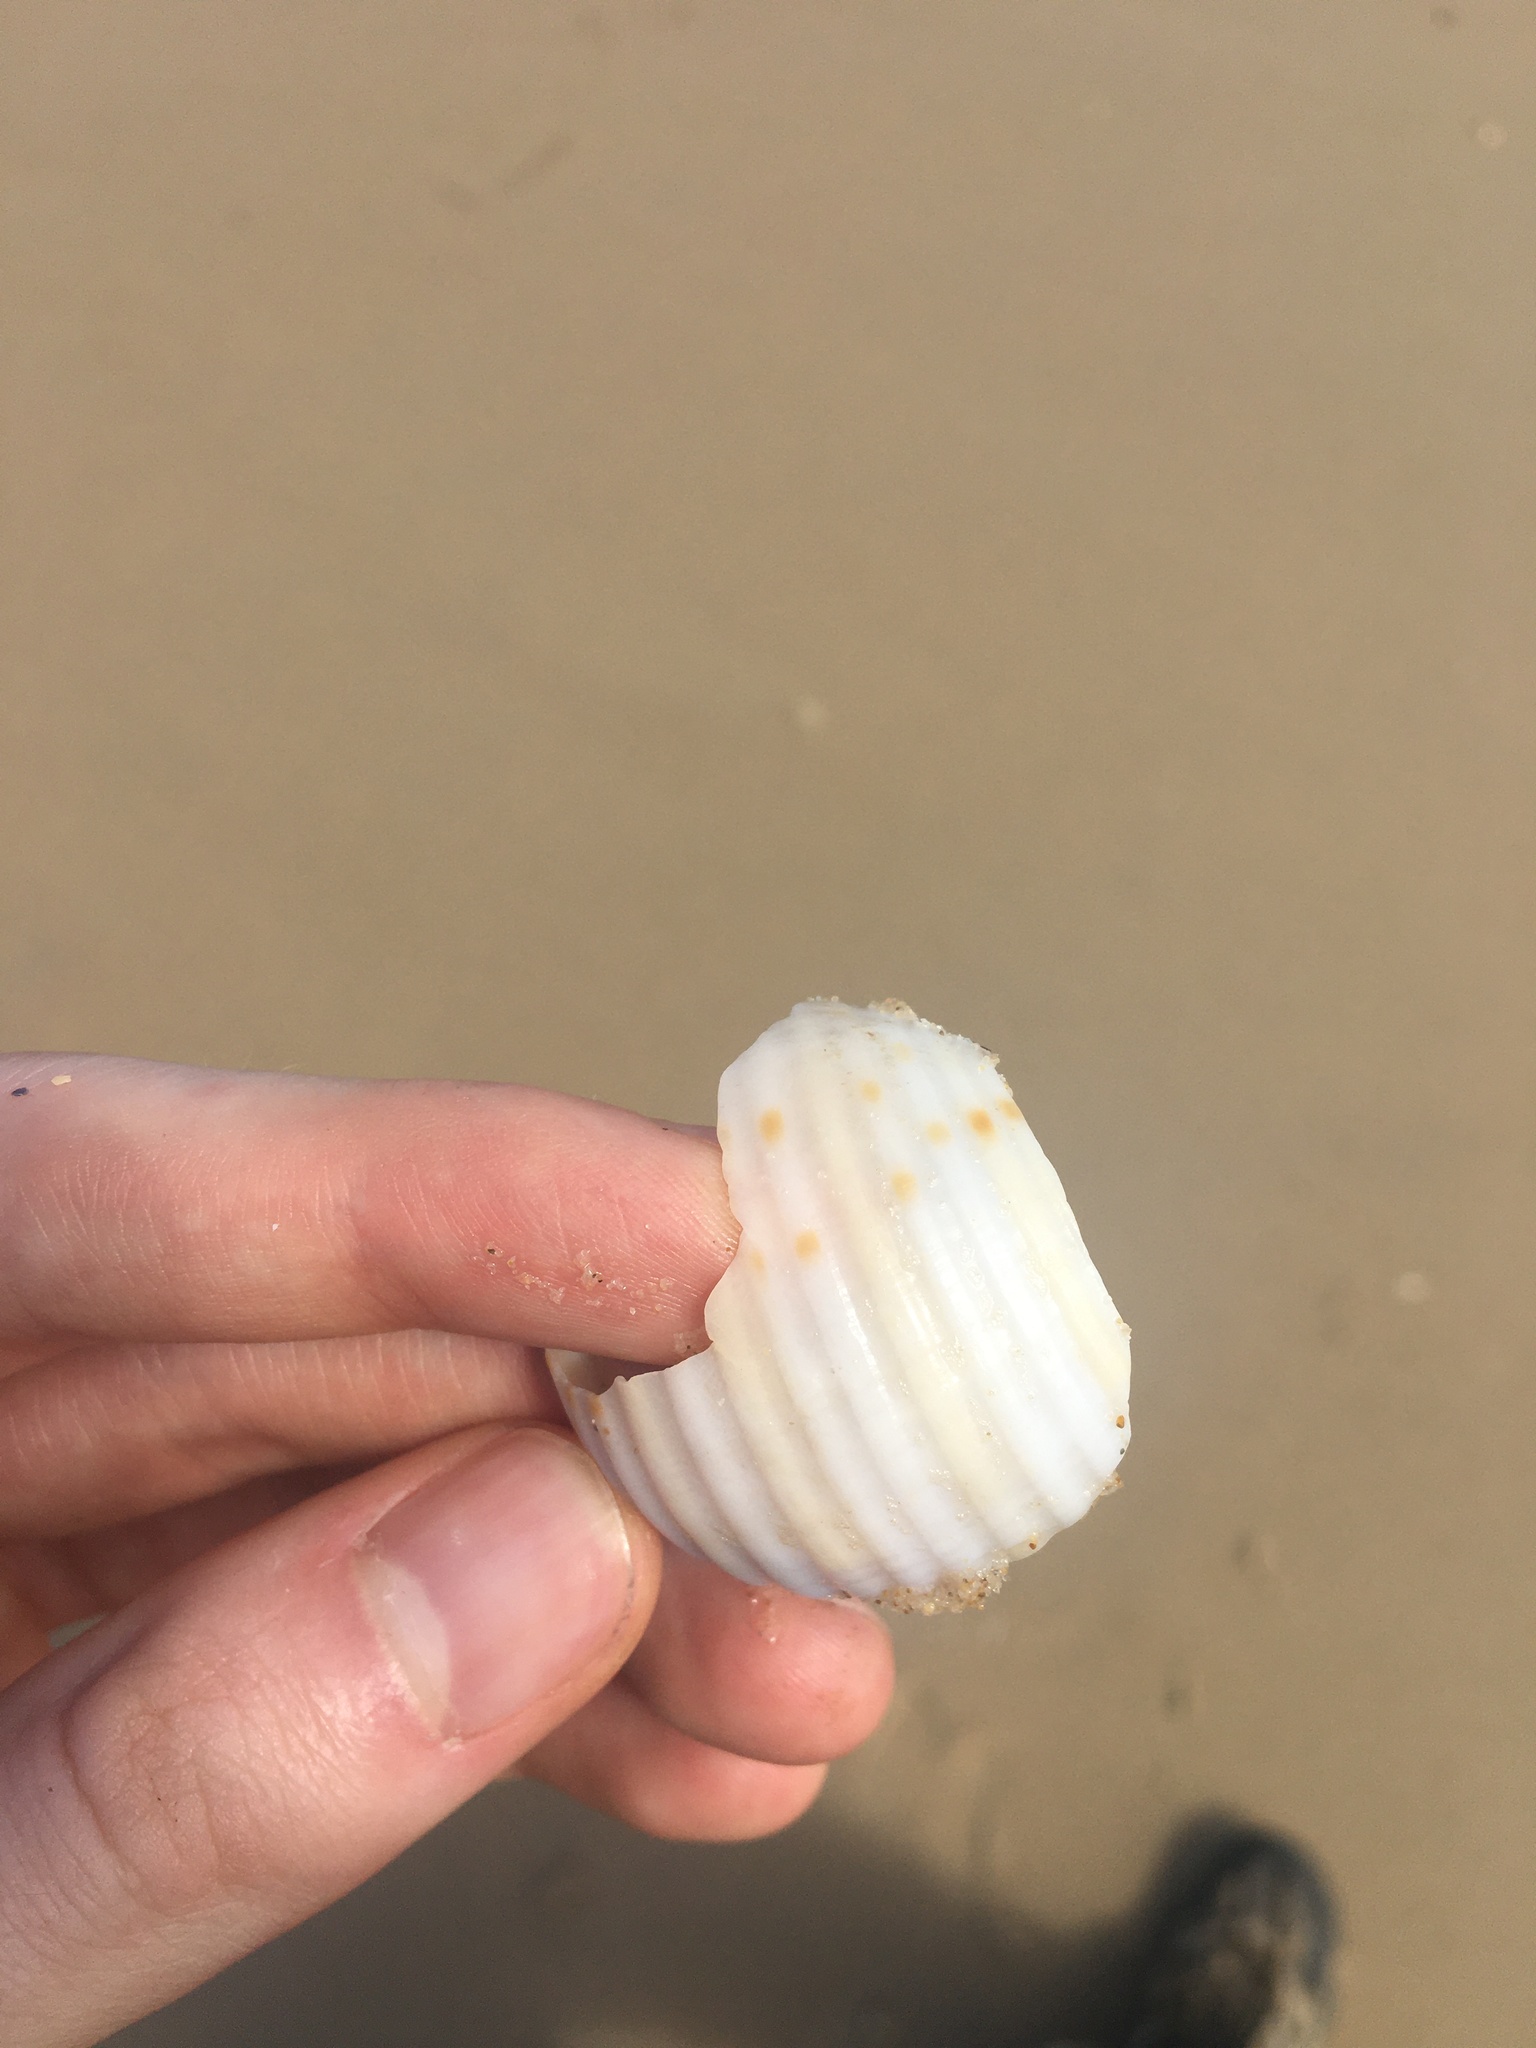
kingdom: Animalia
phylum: Mollusca
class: Gastropoda
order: Littorinimorpha
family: Tonnidae
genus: Tonna
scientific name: Tonna tankervillii
